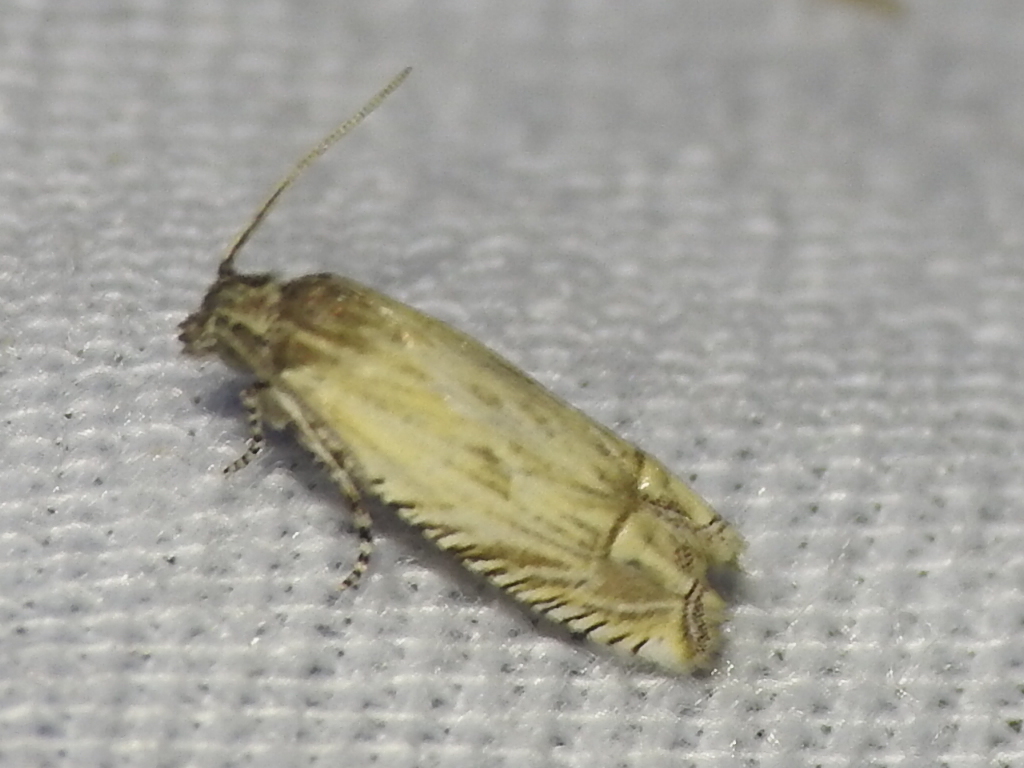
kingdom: Animalia
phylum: Arthropoda
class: Insecta
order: Lepidoptera
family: Tortricidae
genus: Eucosma
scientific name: Eucosma grindeliana
